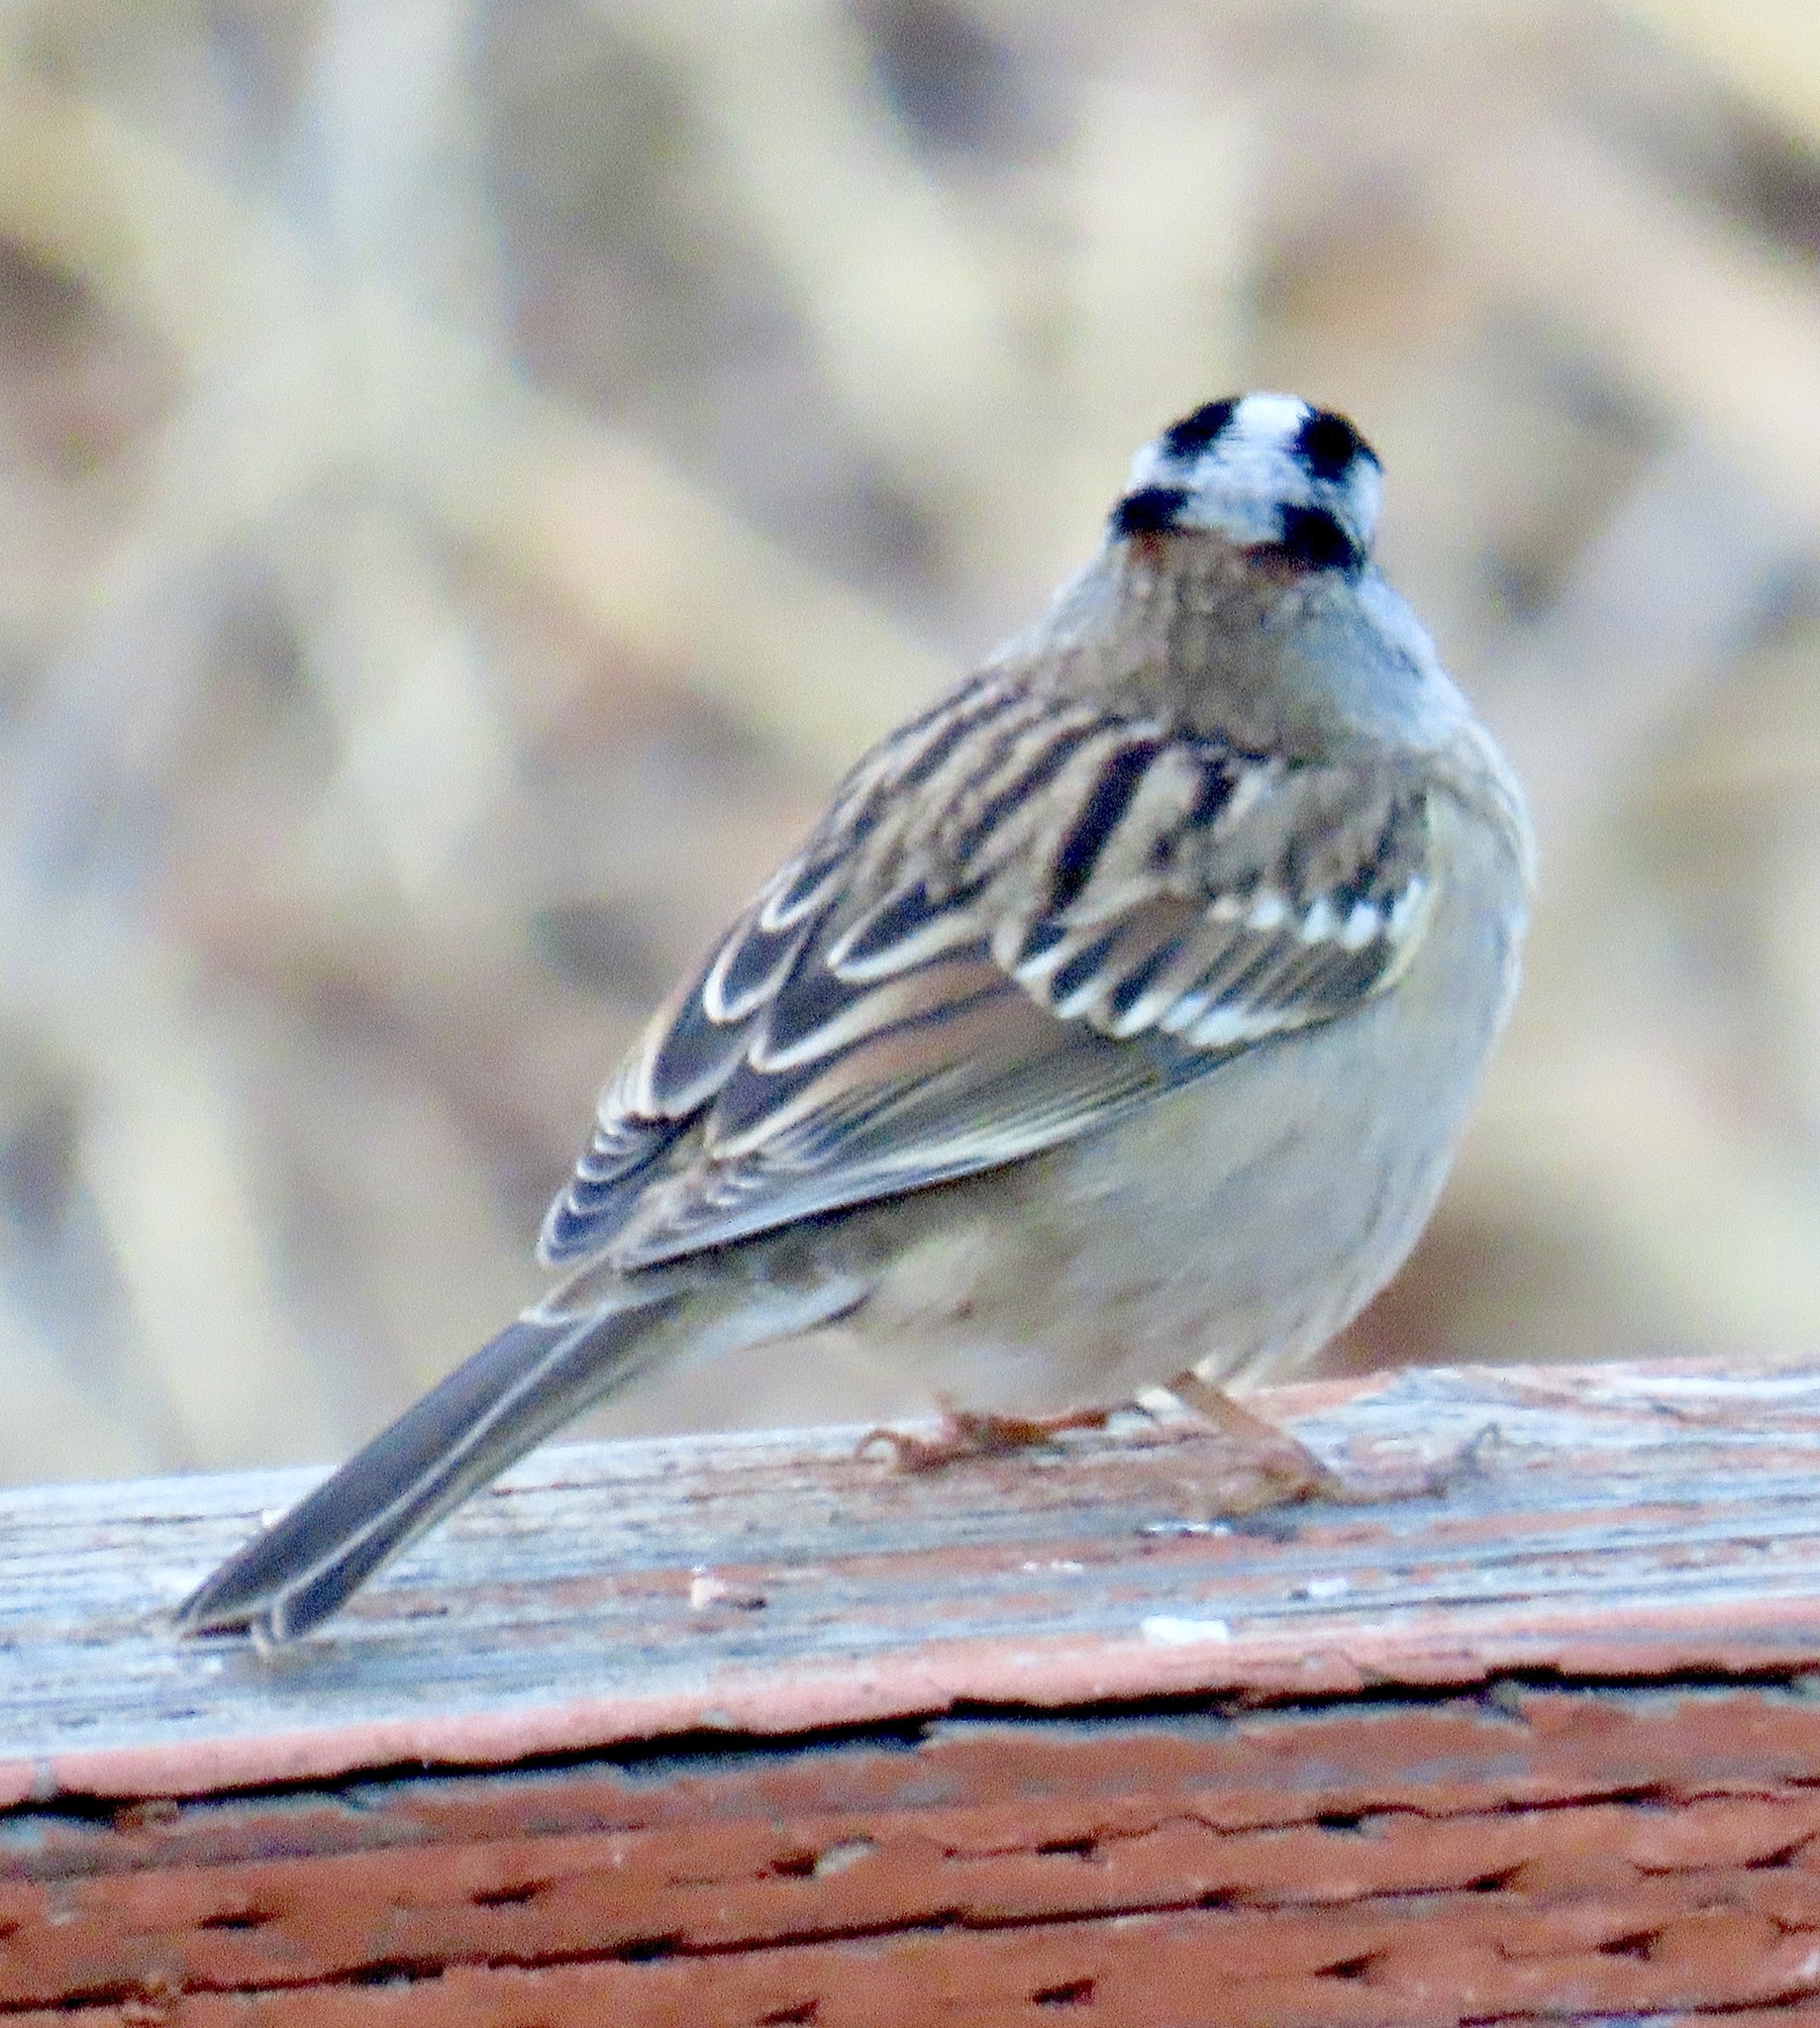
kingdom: Animalia
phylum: Chordata
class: Aves
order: Passeriformes
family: Passerellidae
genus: Zonotrichia
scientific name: Zonotrichia leucophrys
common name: White-crowned sparrow
